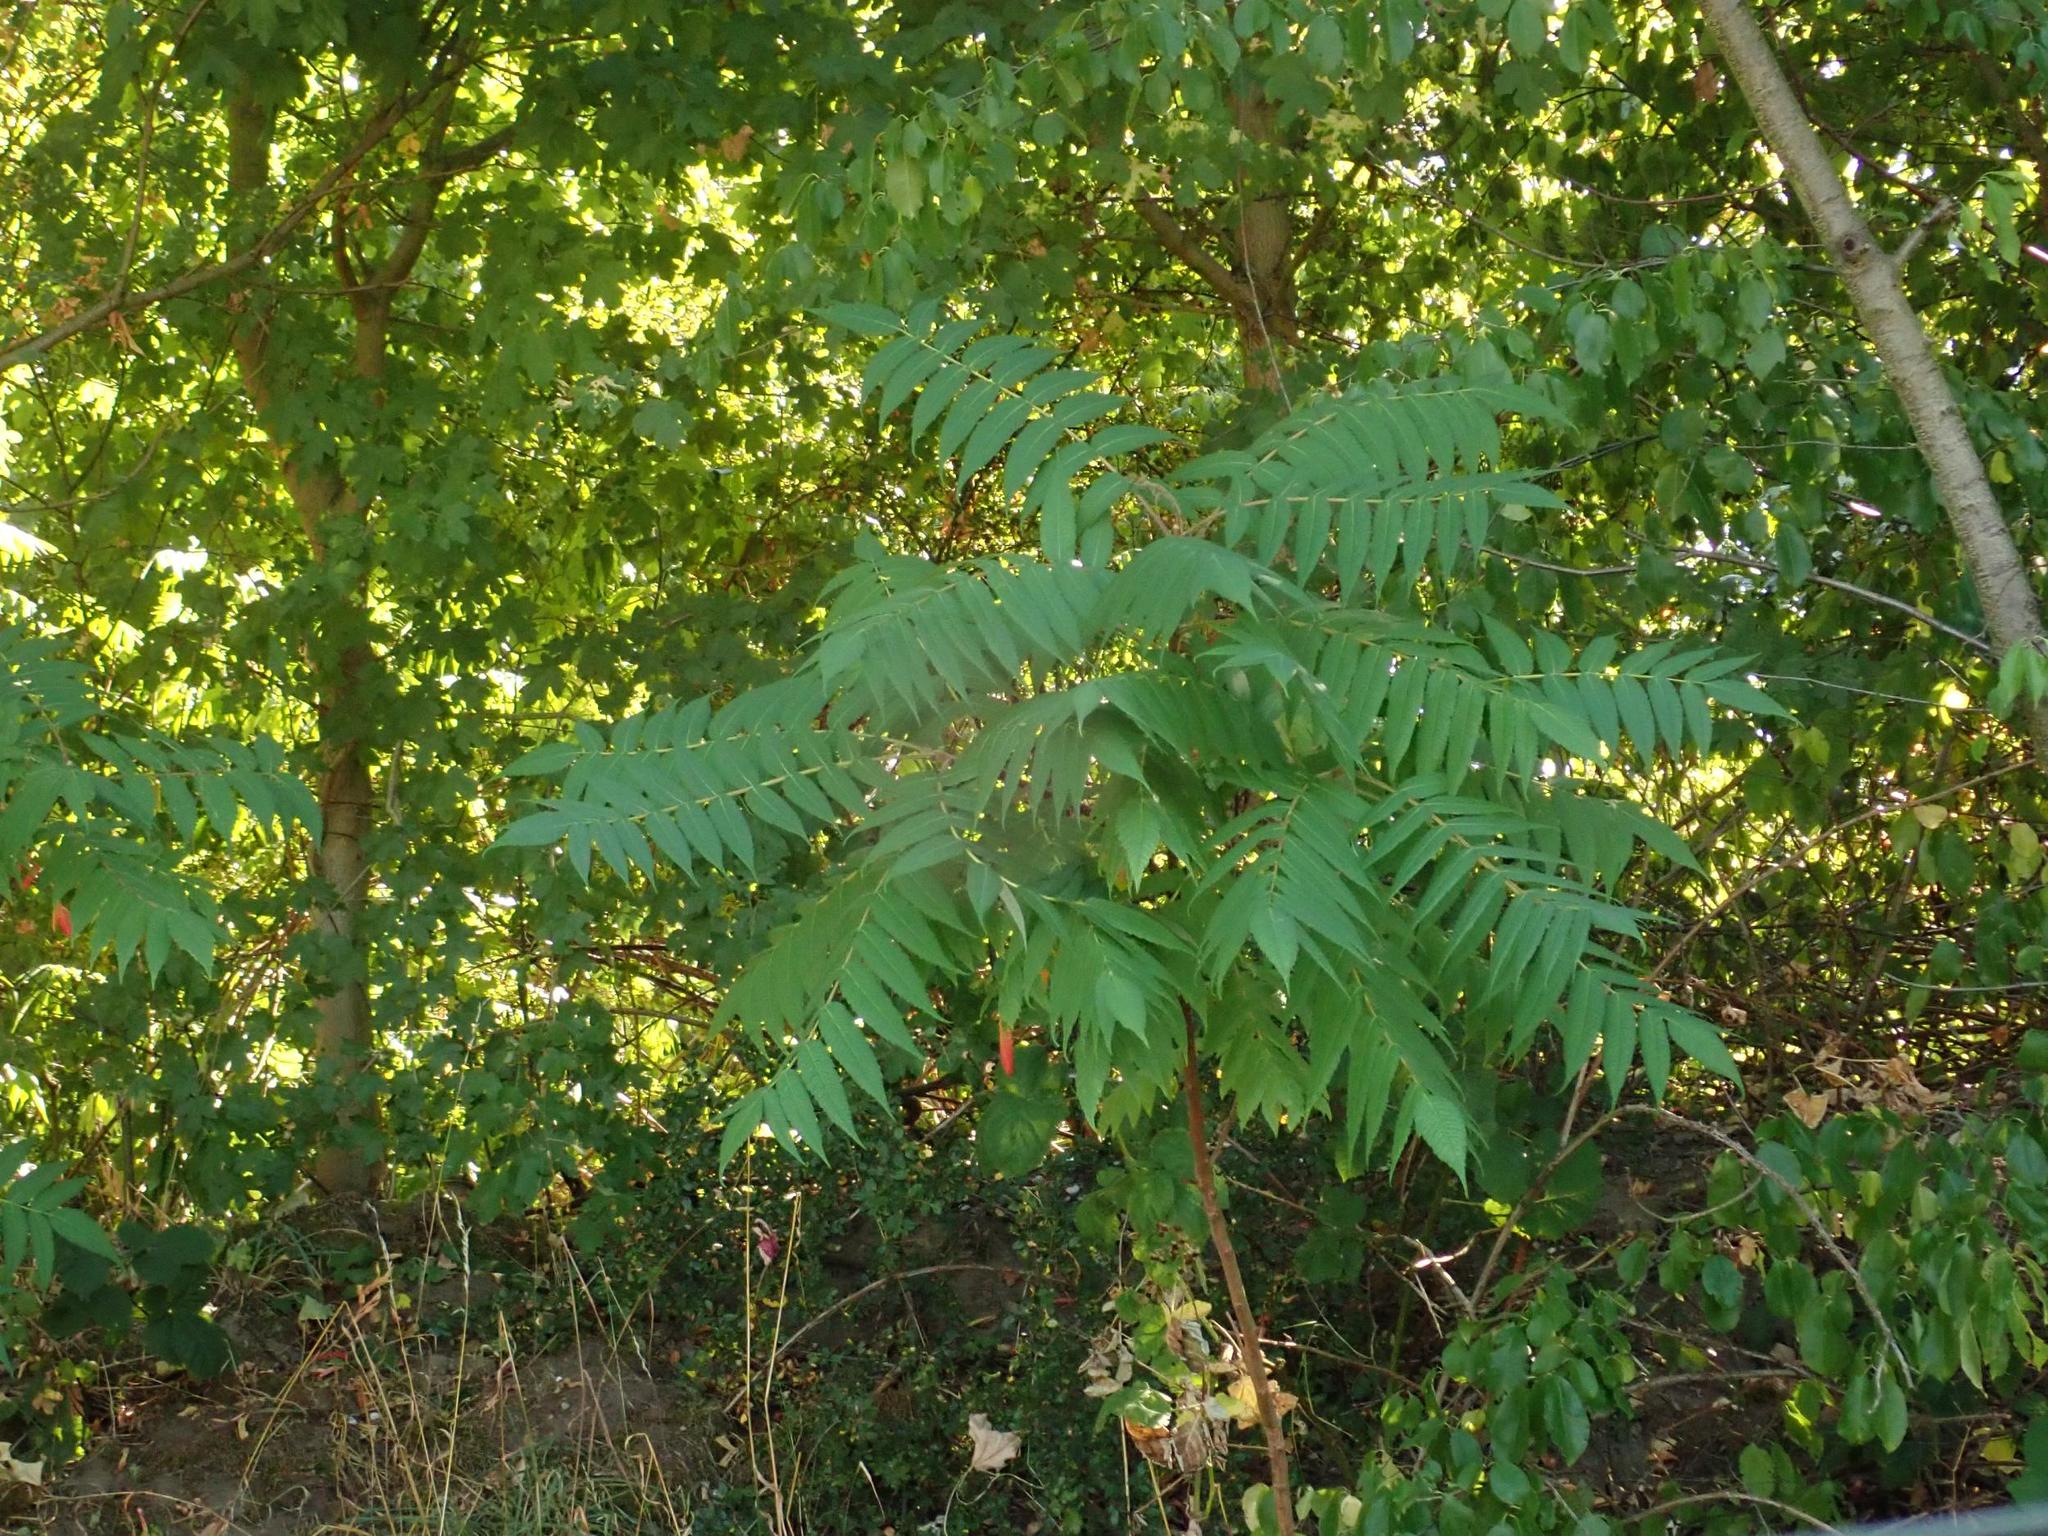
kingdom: Plantae
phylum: Tracheophyta
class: Magnoliopsida
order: Sapindales
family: Anacardiaceae
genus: Rhus
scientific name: Rhus typhina
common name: Staghorn sumac
